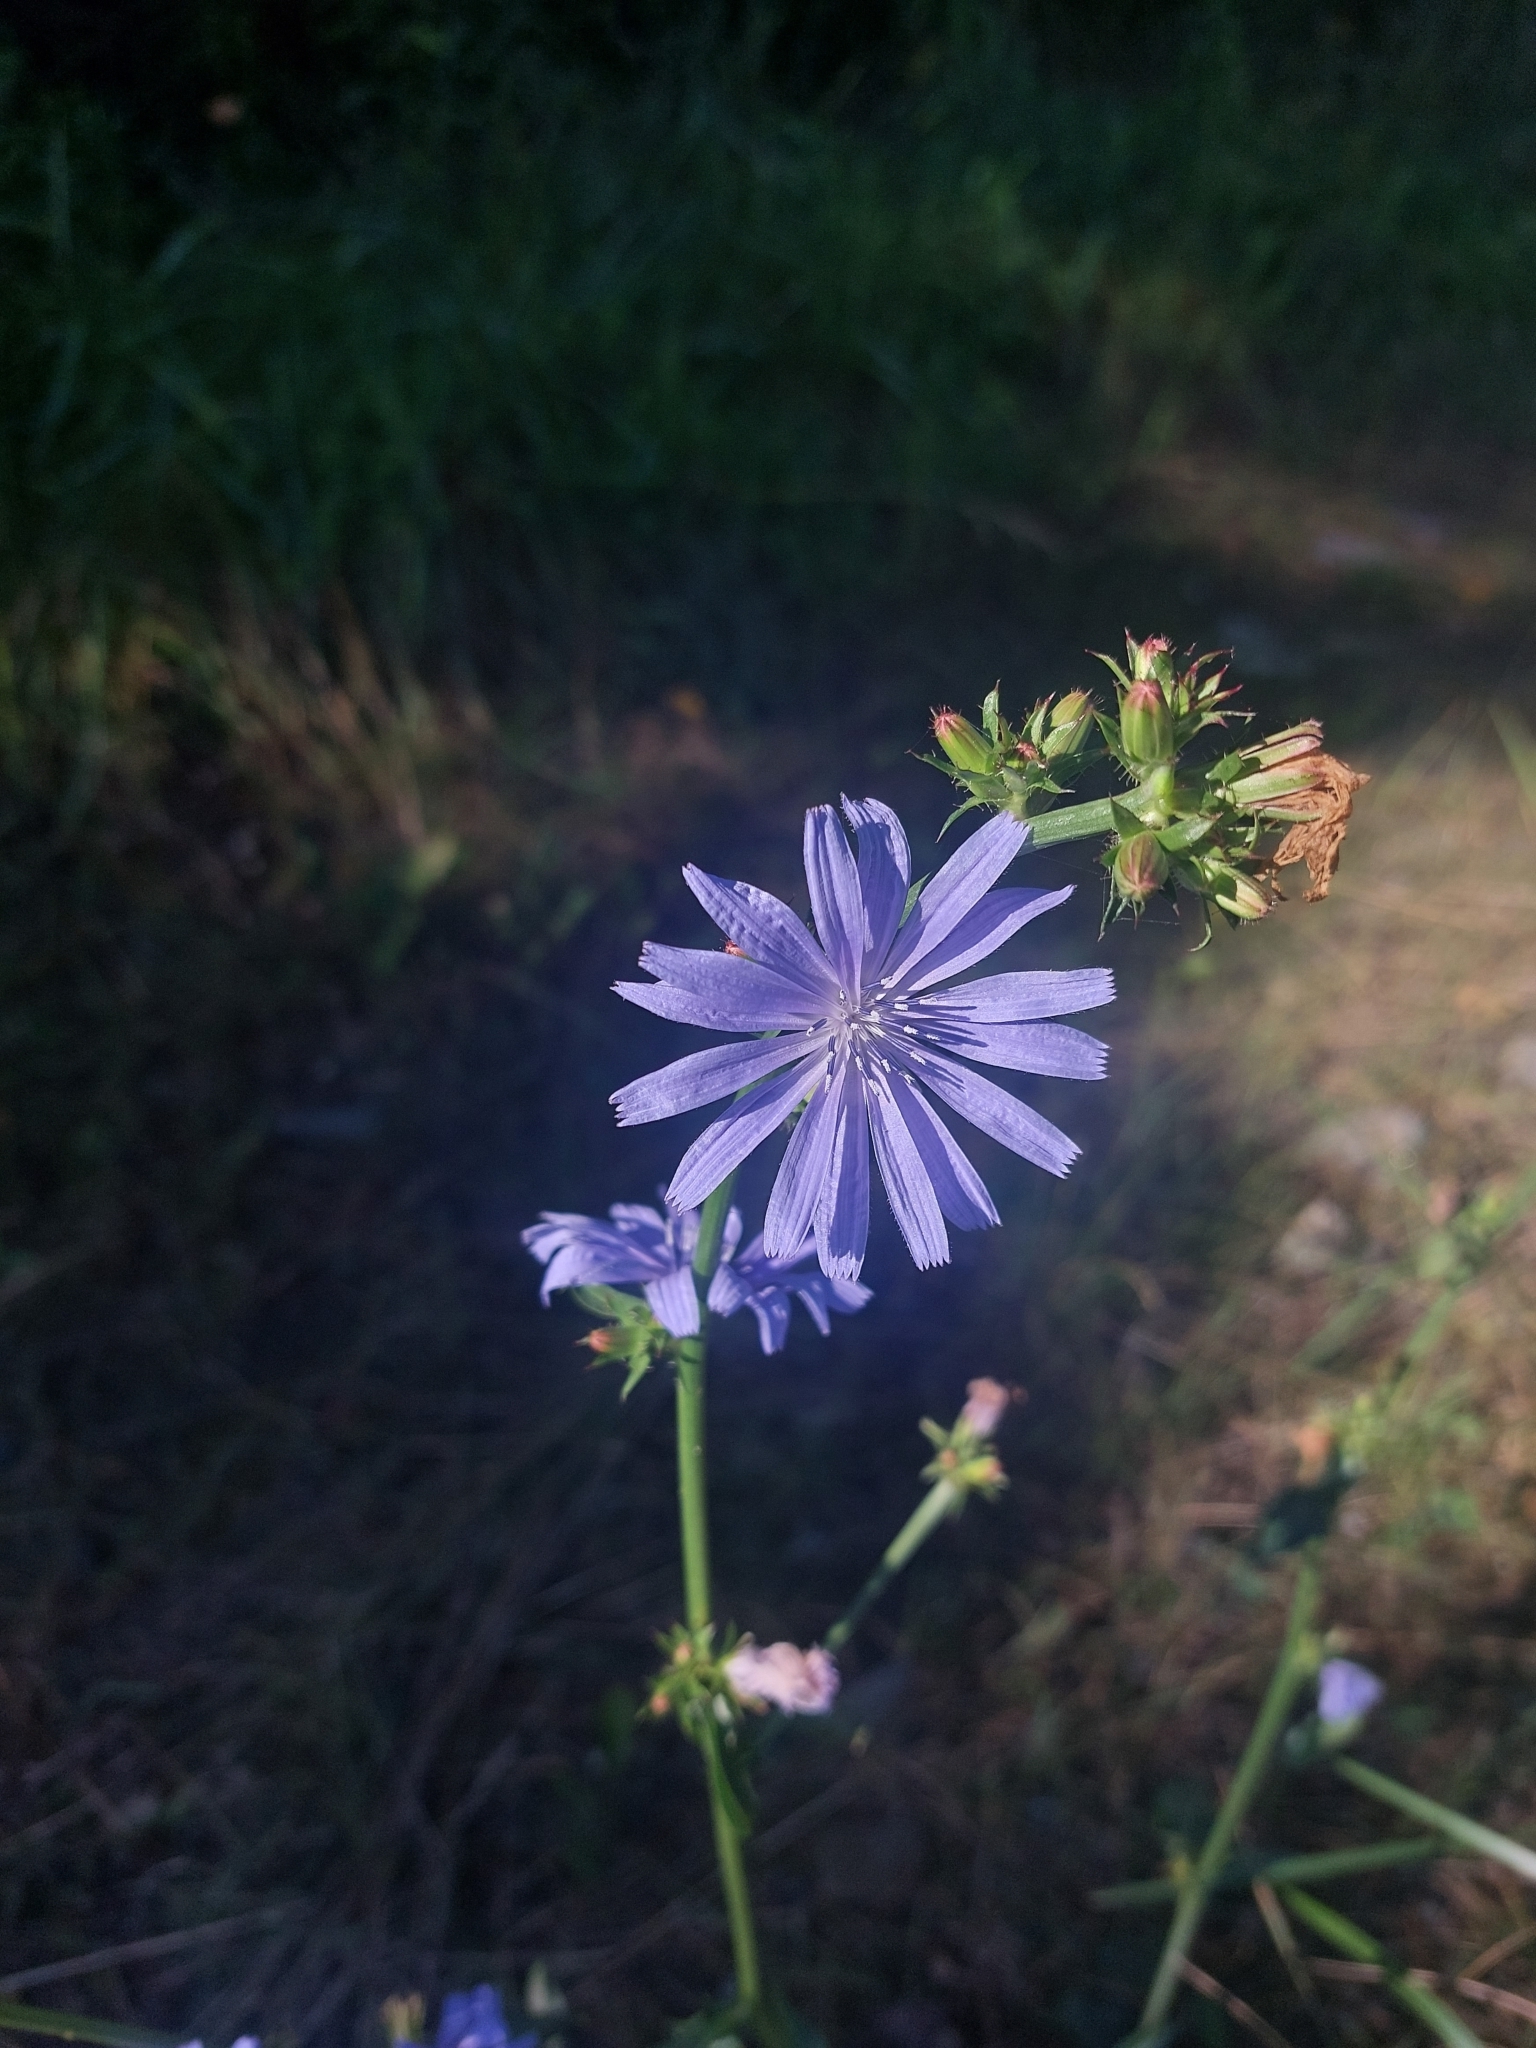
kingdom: Plantae
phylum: Tracheophyta
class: Magnoliopsida
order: Asterales
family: Asteraceae
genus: Cichorium
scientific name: Cichorium intybus
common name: Chicory
